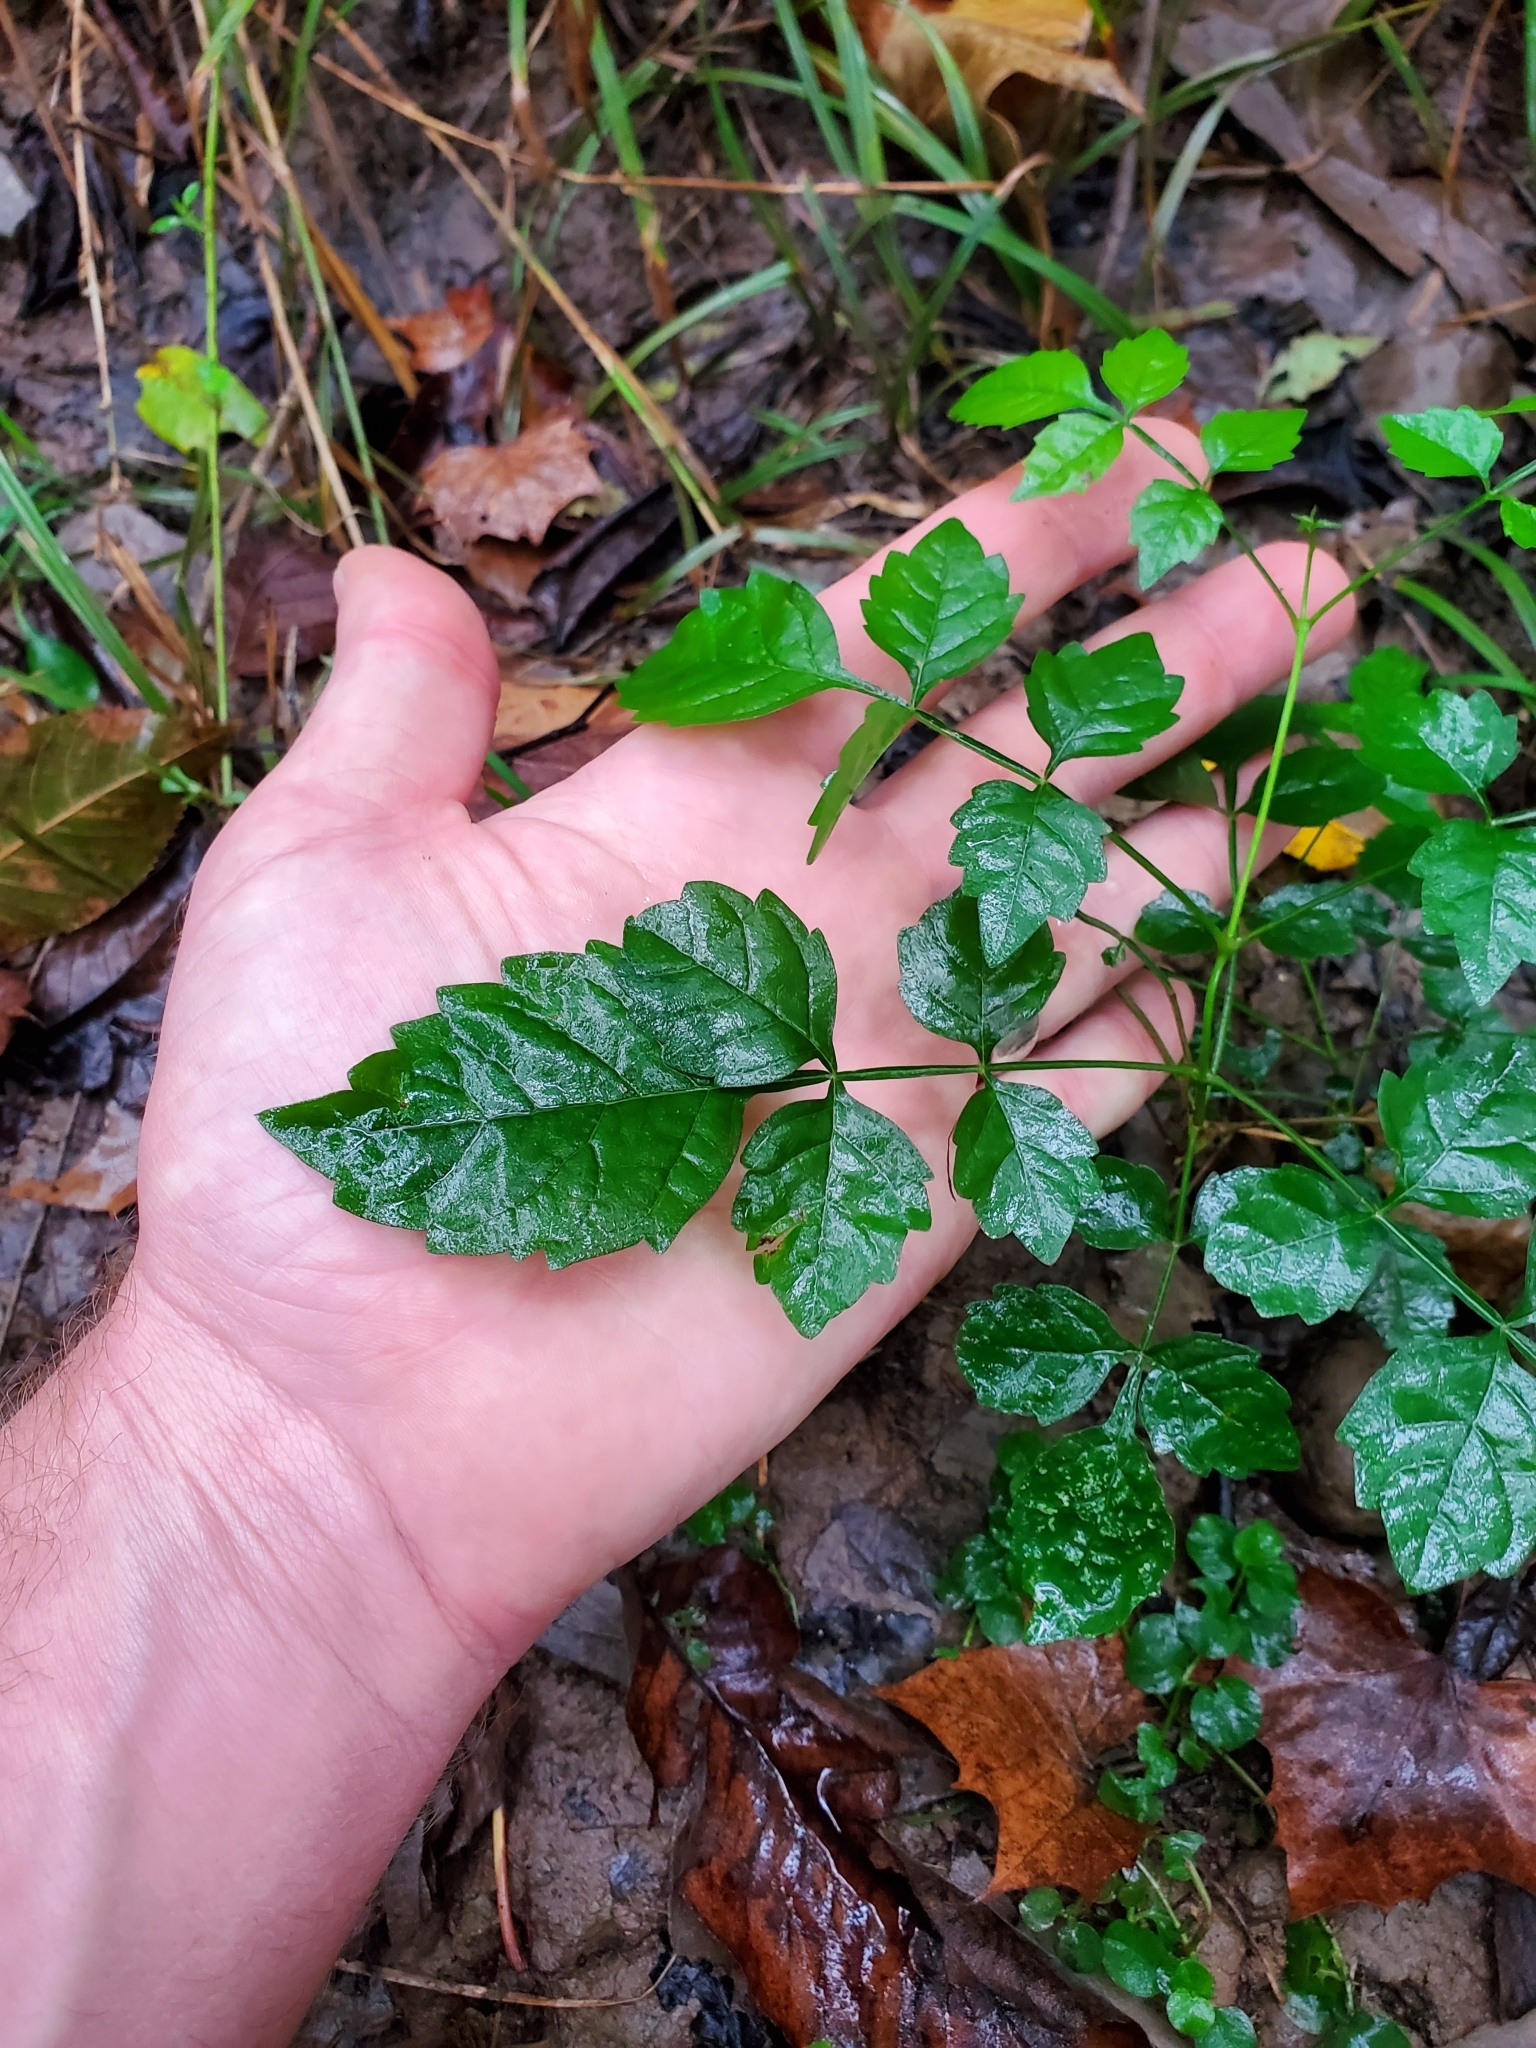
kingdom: Plantae
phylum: Tracheophyta
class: Magnoliopsida
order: Lamiales
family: Bignoniaceae
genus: Campsis
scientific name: Campsis radicans
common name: Trumpet-creeper
